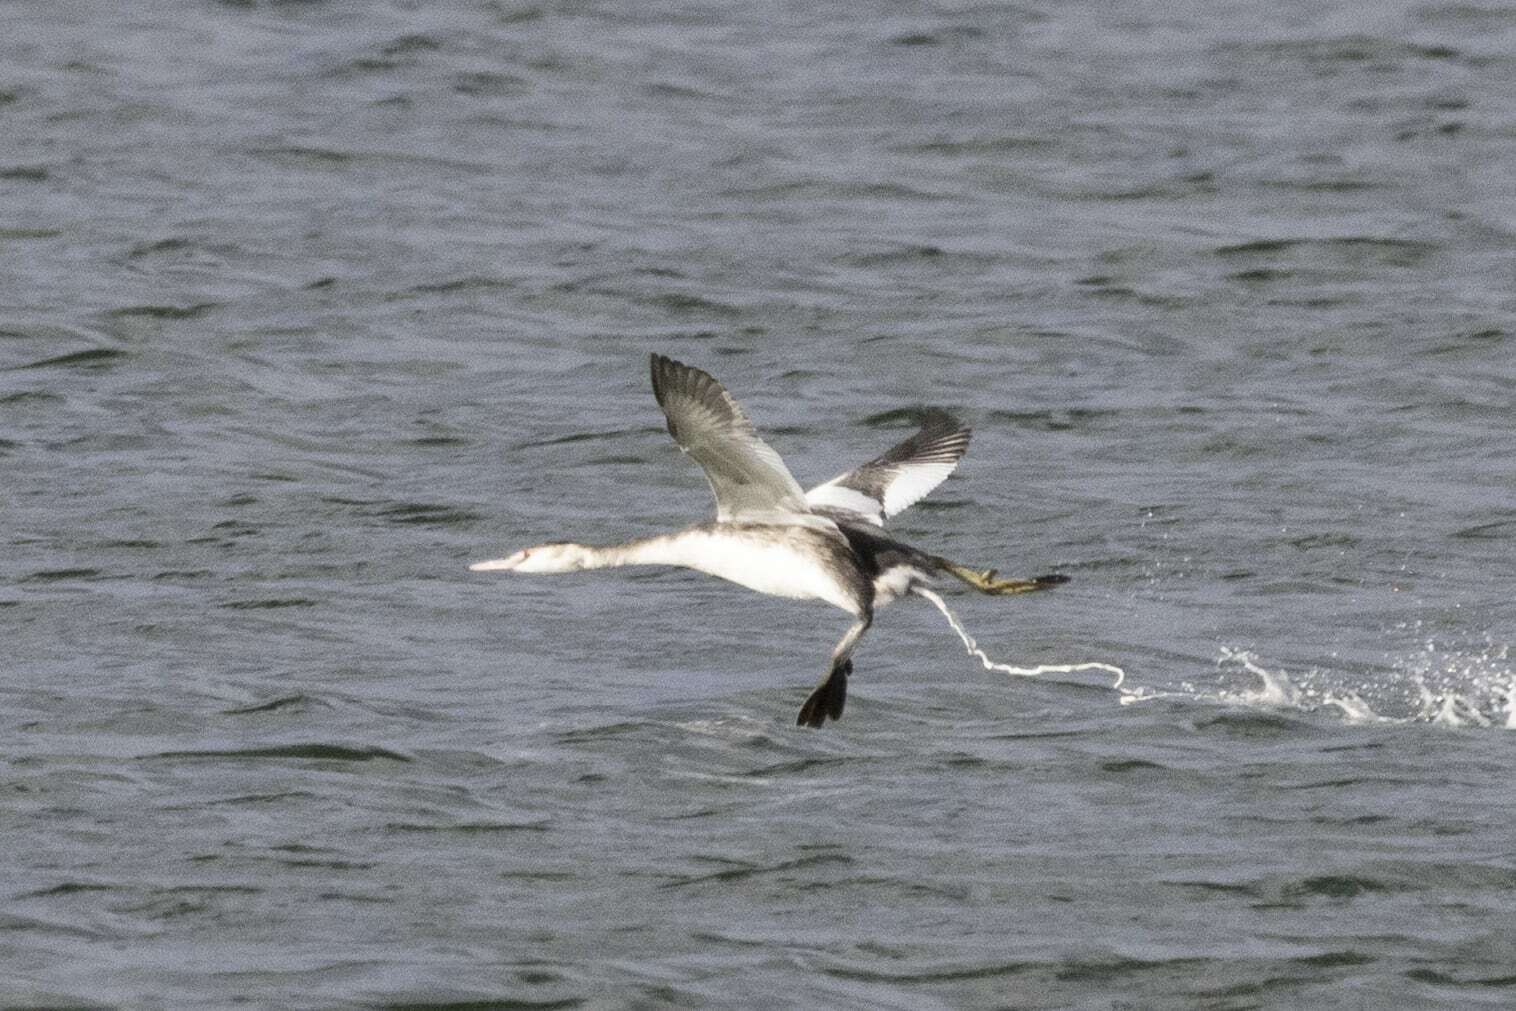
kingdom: Animalia
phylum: Chordata
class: Aves
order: Podicipediformes
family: Podicipedidae
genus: Podiceps
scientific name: Podiceps cristatus
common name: Great crested grebe
